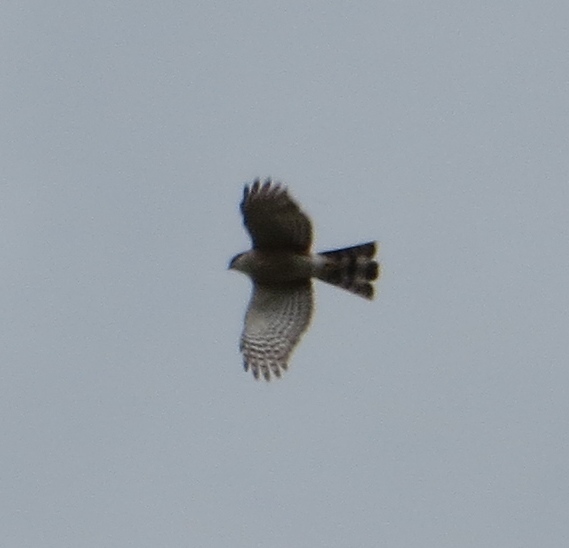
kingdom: Animalia
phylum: Chordata
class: Aves
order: Accipitriformes
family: Accipitridae
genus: Accipiter
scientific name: Accipiter striatus
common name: Sharp-shinned hawk
